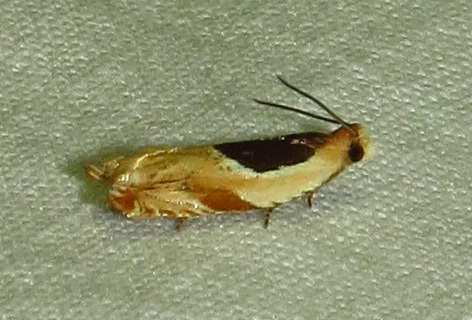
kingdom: Animalia
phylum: Arthropoda
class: Insecta
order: Lepidoptera
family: Tortricidae
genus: Ancylis
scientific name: Ancylis burgessiana
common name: Oak leaffolder moth
